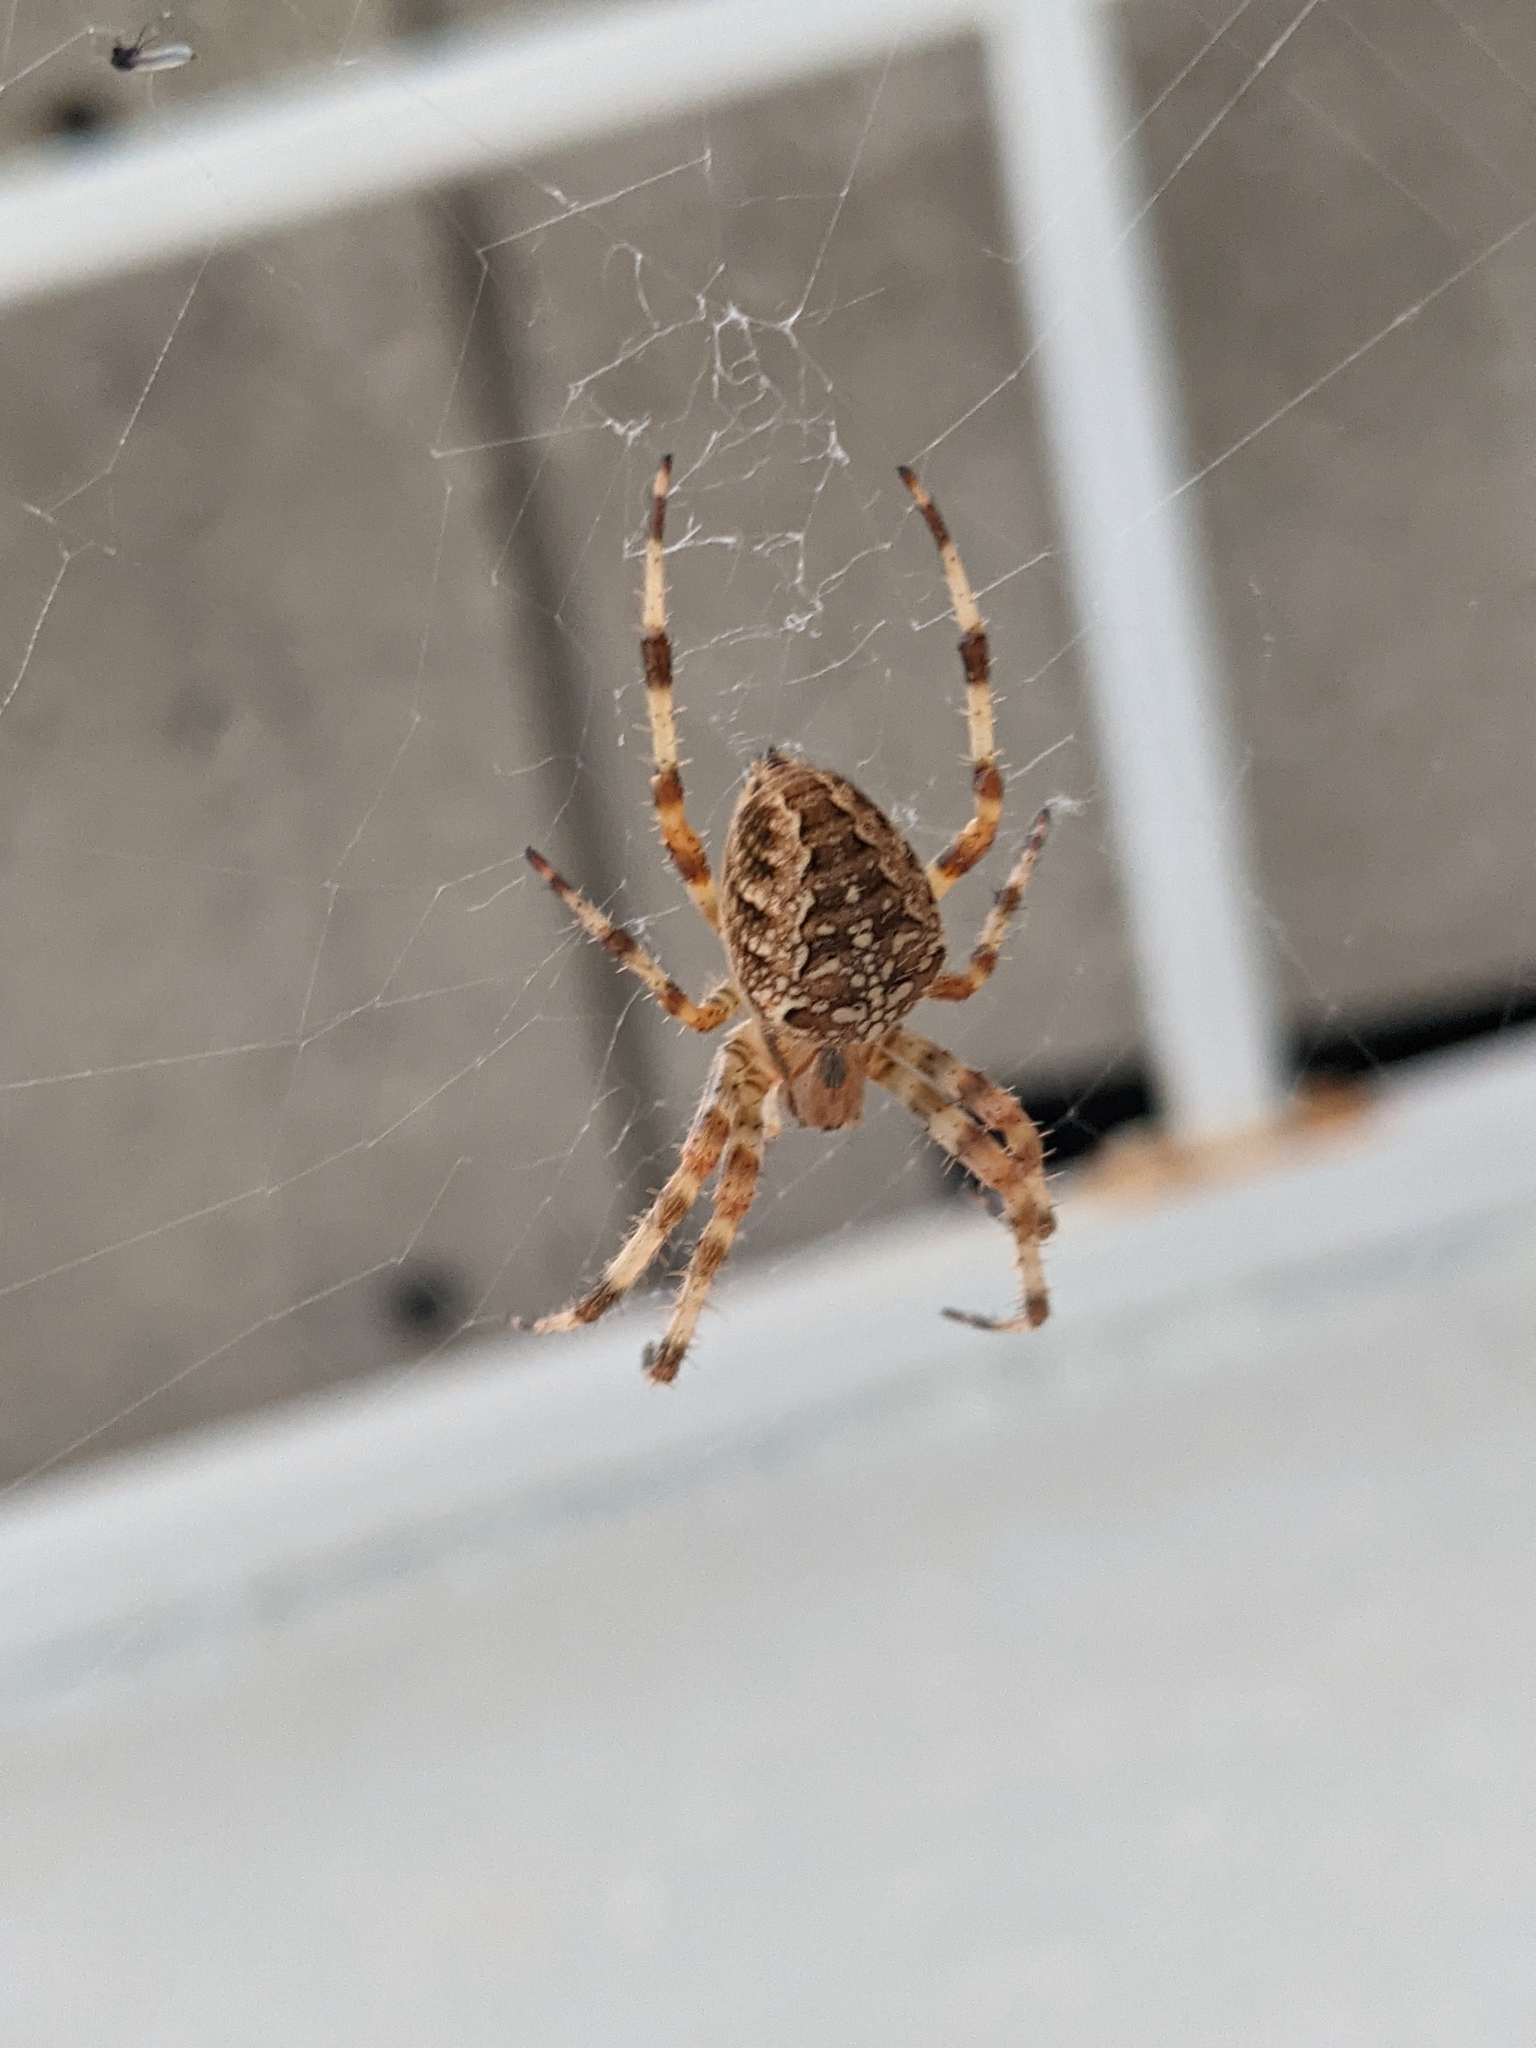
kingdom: Animalia
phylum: Arthropoda
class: Arachnida
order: Araneae
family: Araneidae
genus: Araneus
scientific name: Araneus diadematus
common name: Cross orbweaver
